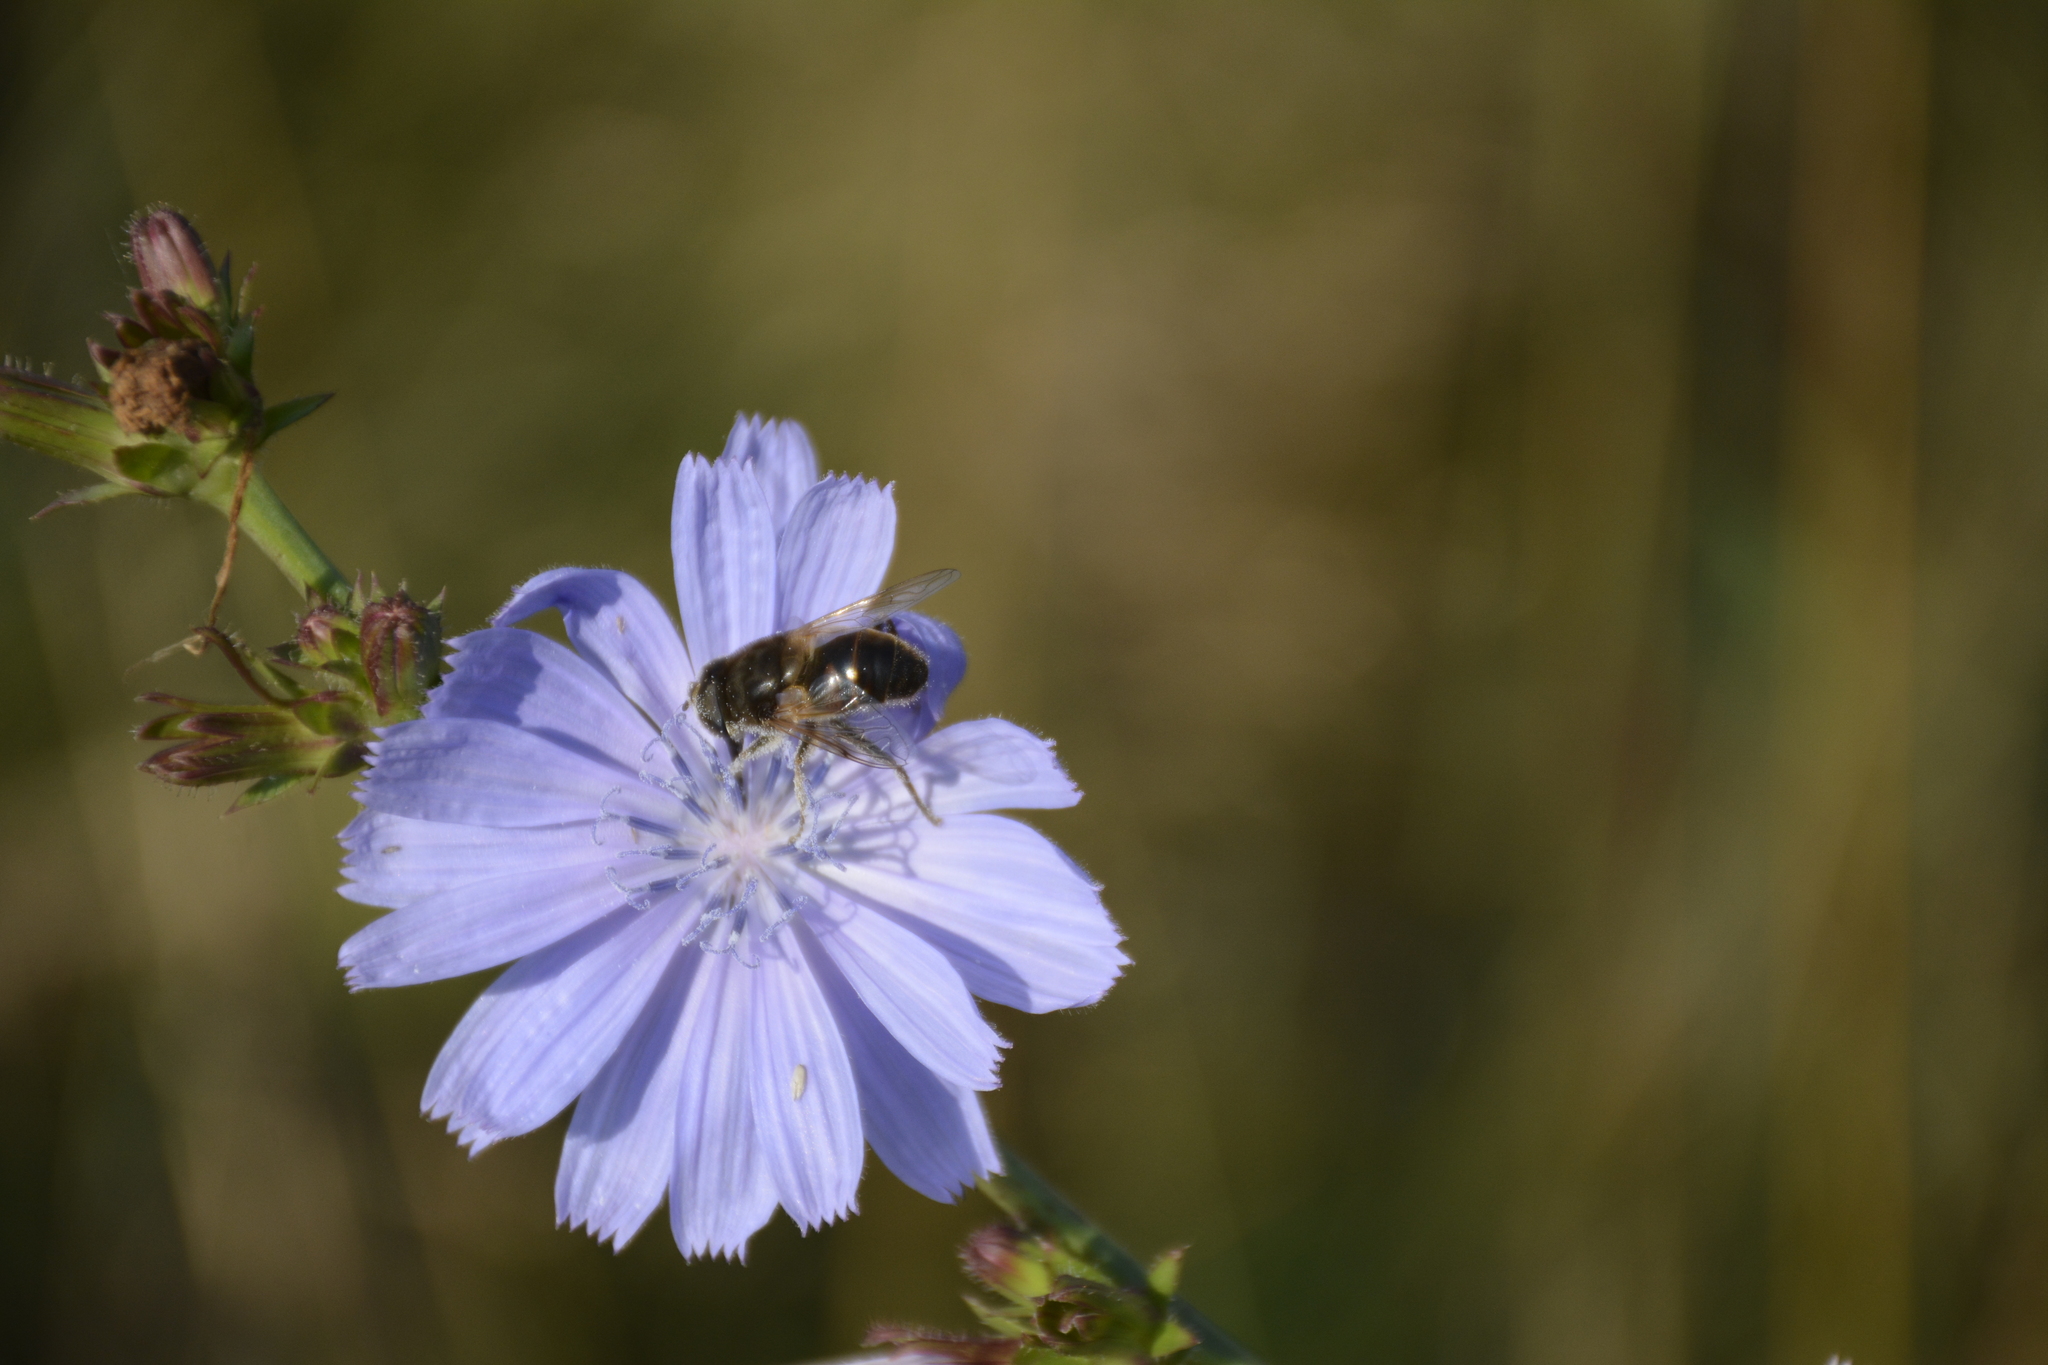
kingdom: Animalia
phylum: Arthropoda
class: Insecta
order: Diptera
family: Syrphidae
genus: Eristalis
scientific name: Eristalis tenax
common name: Drone fly
